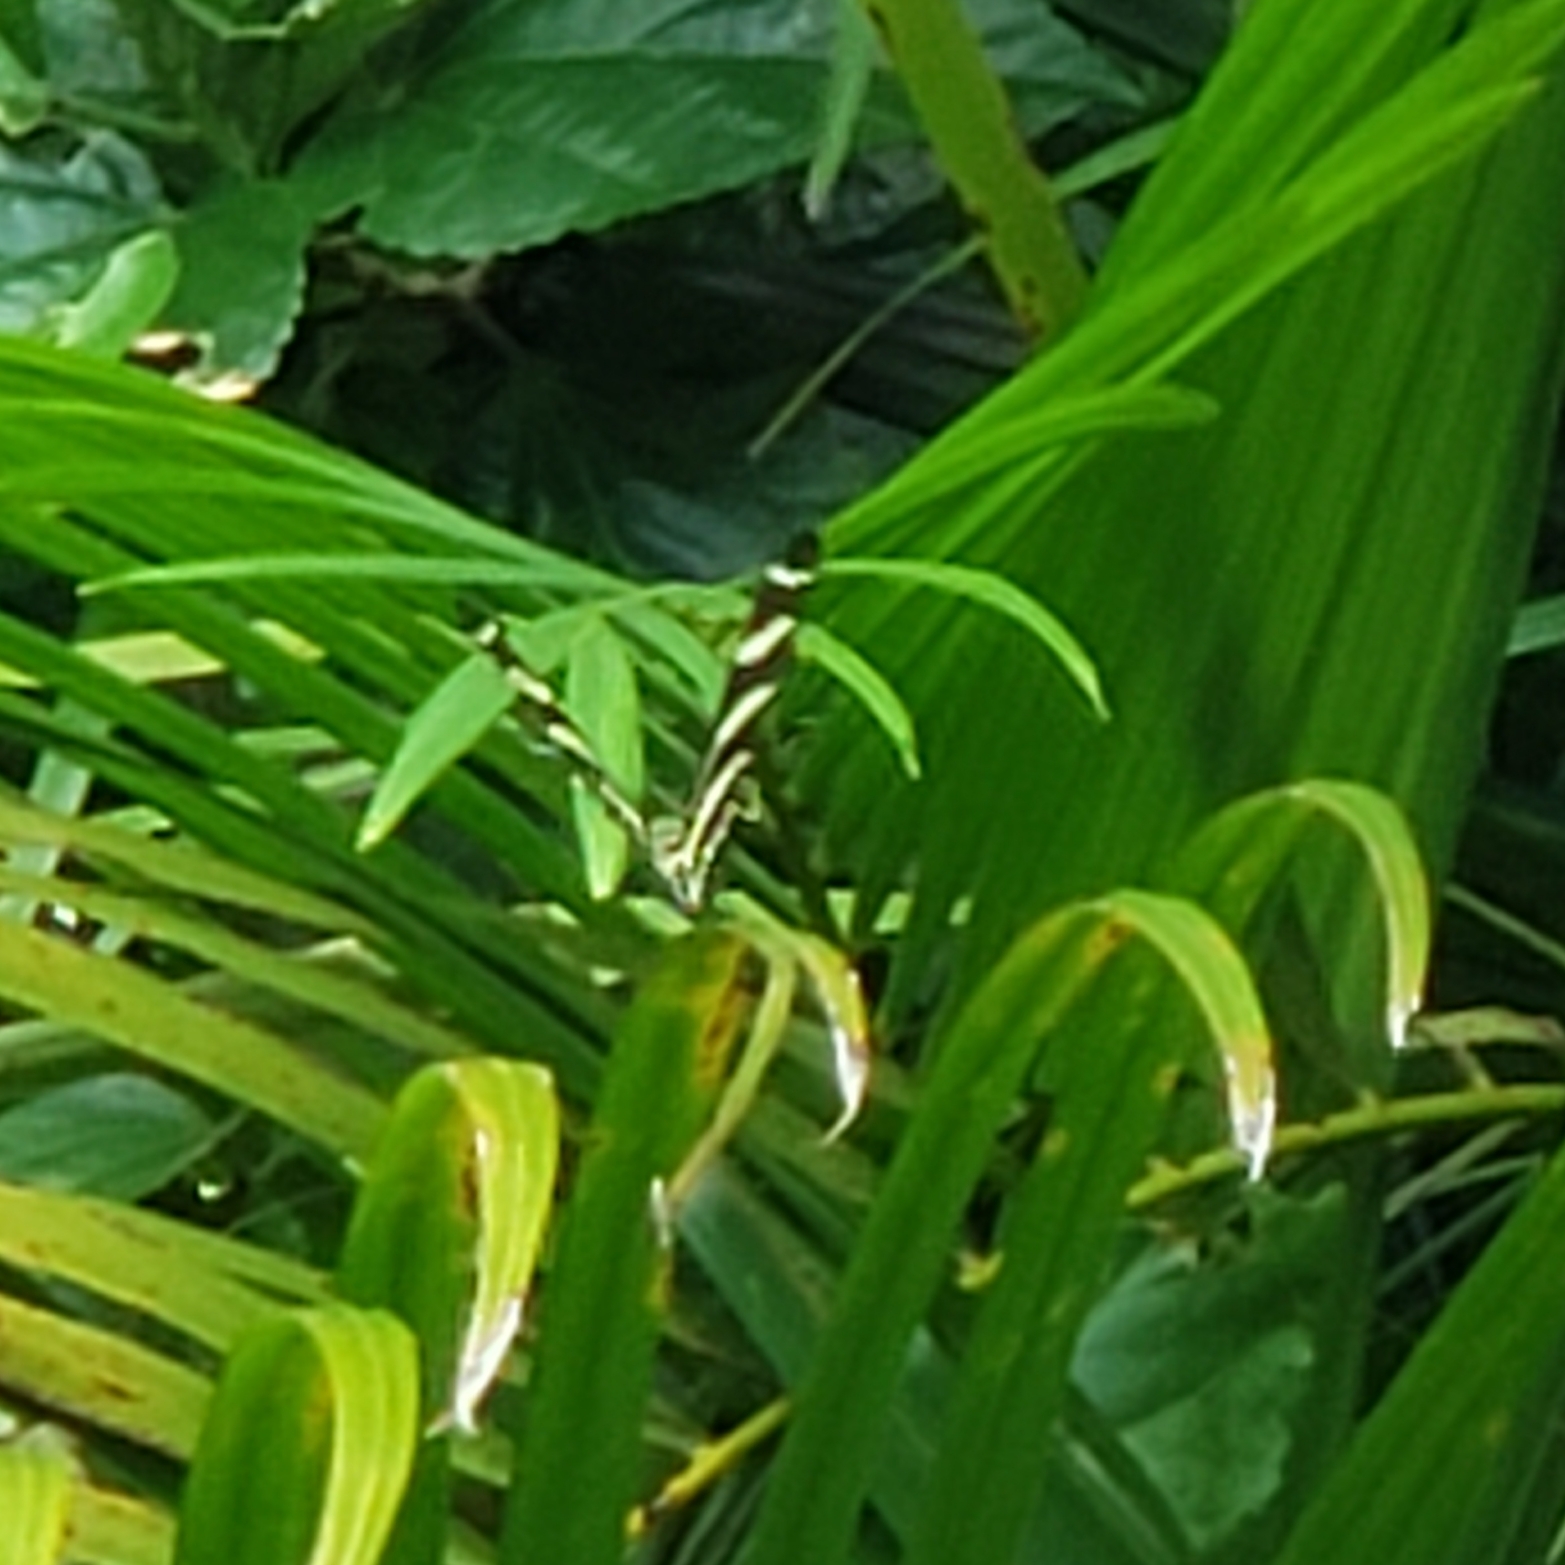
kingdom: Animalia
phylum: Arthropoda
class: Insecta
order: Lepidoptera
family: Nymphalidae
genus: Heliconius
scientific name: Heliconius charithonia
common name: Zebra long wing
